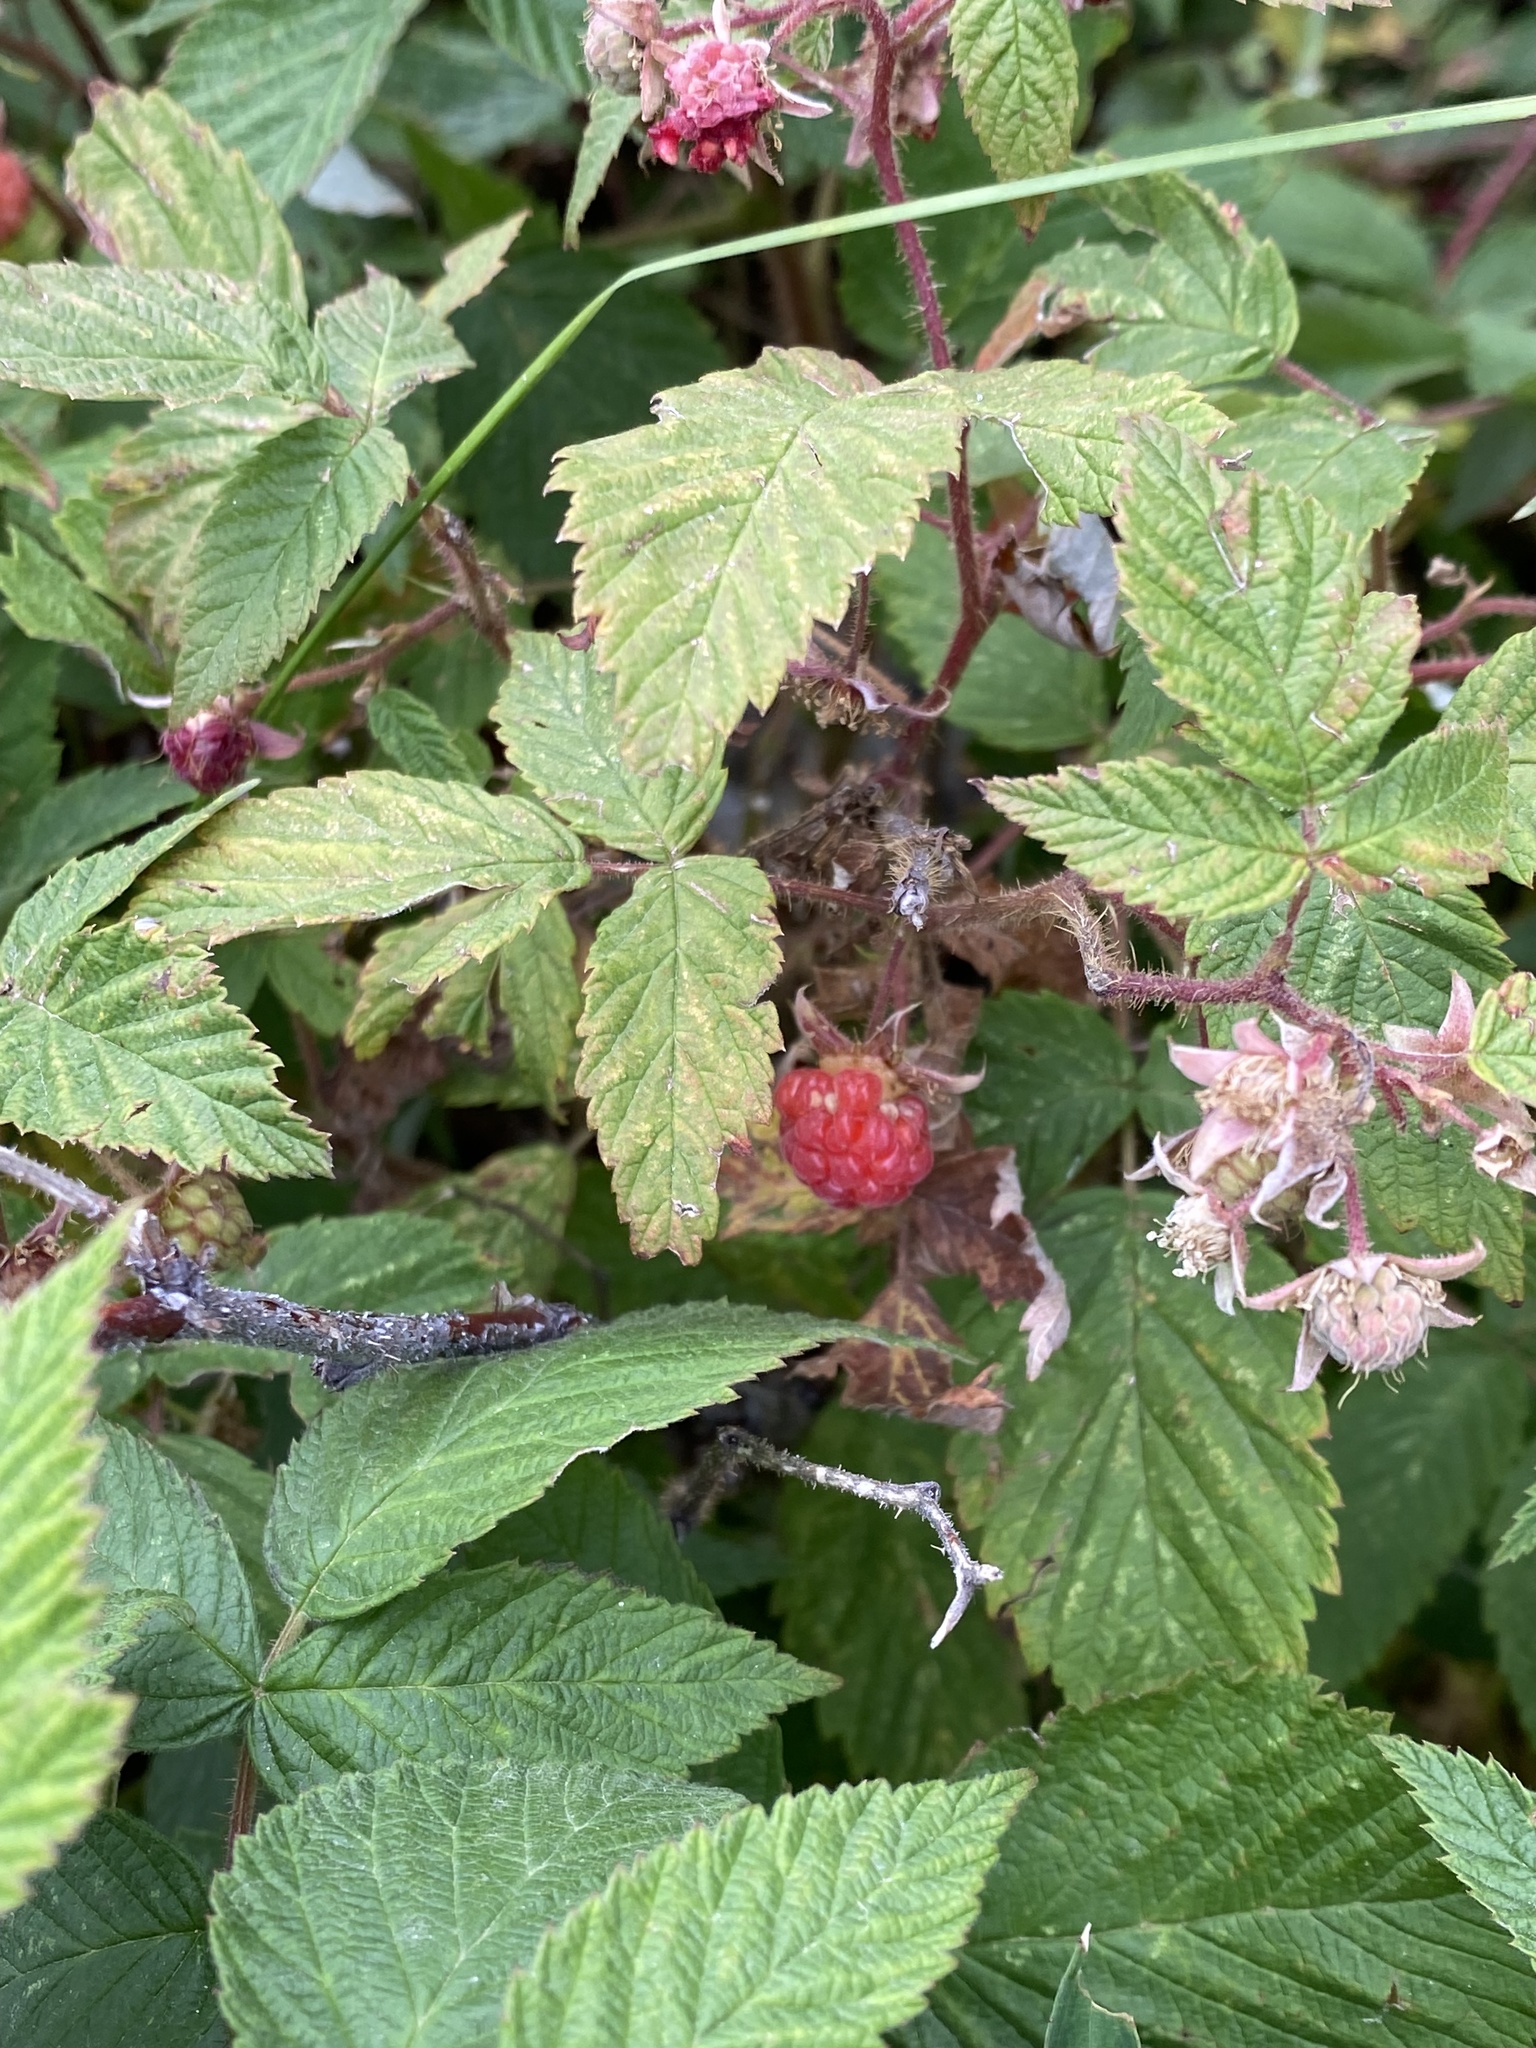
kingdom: Plantae
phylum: Tracheophyta
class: Magnoliopsida
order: Rosales
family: Rosaceae
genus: Rubus
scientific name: Rubus idaeus
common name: Raspberry
